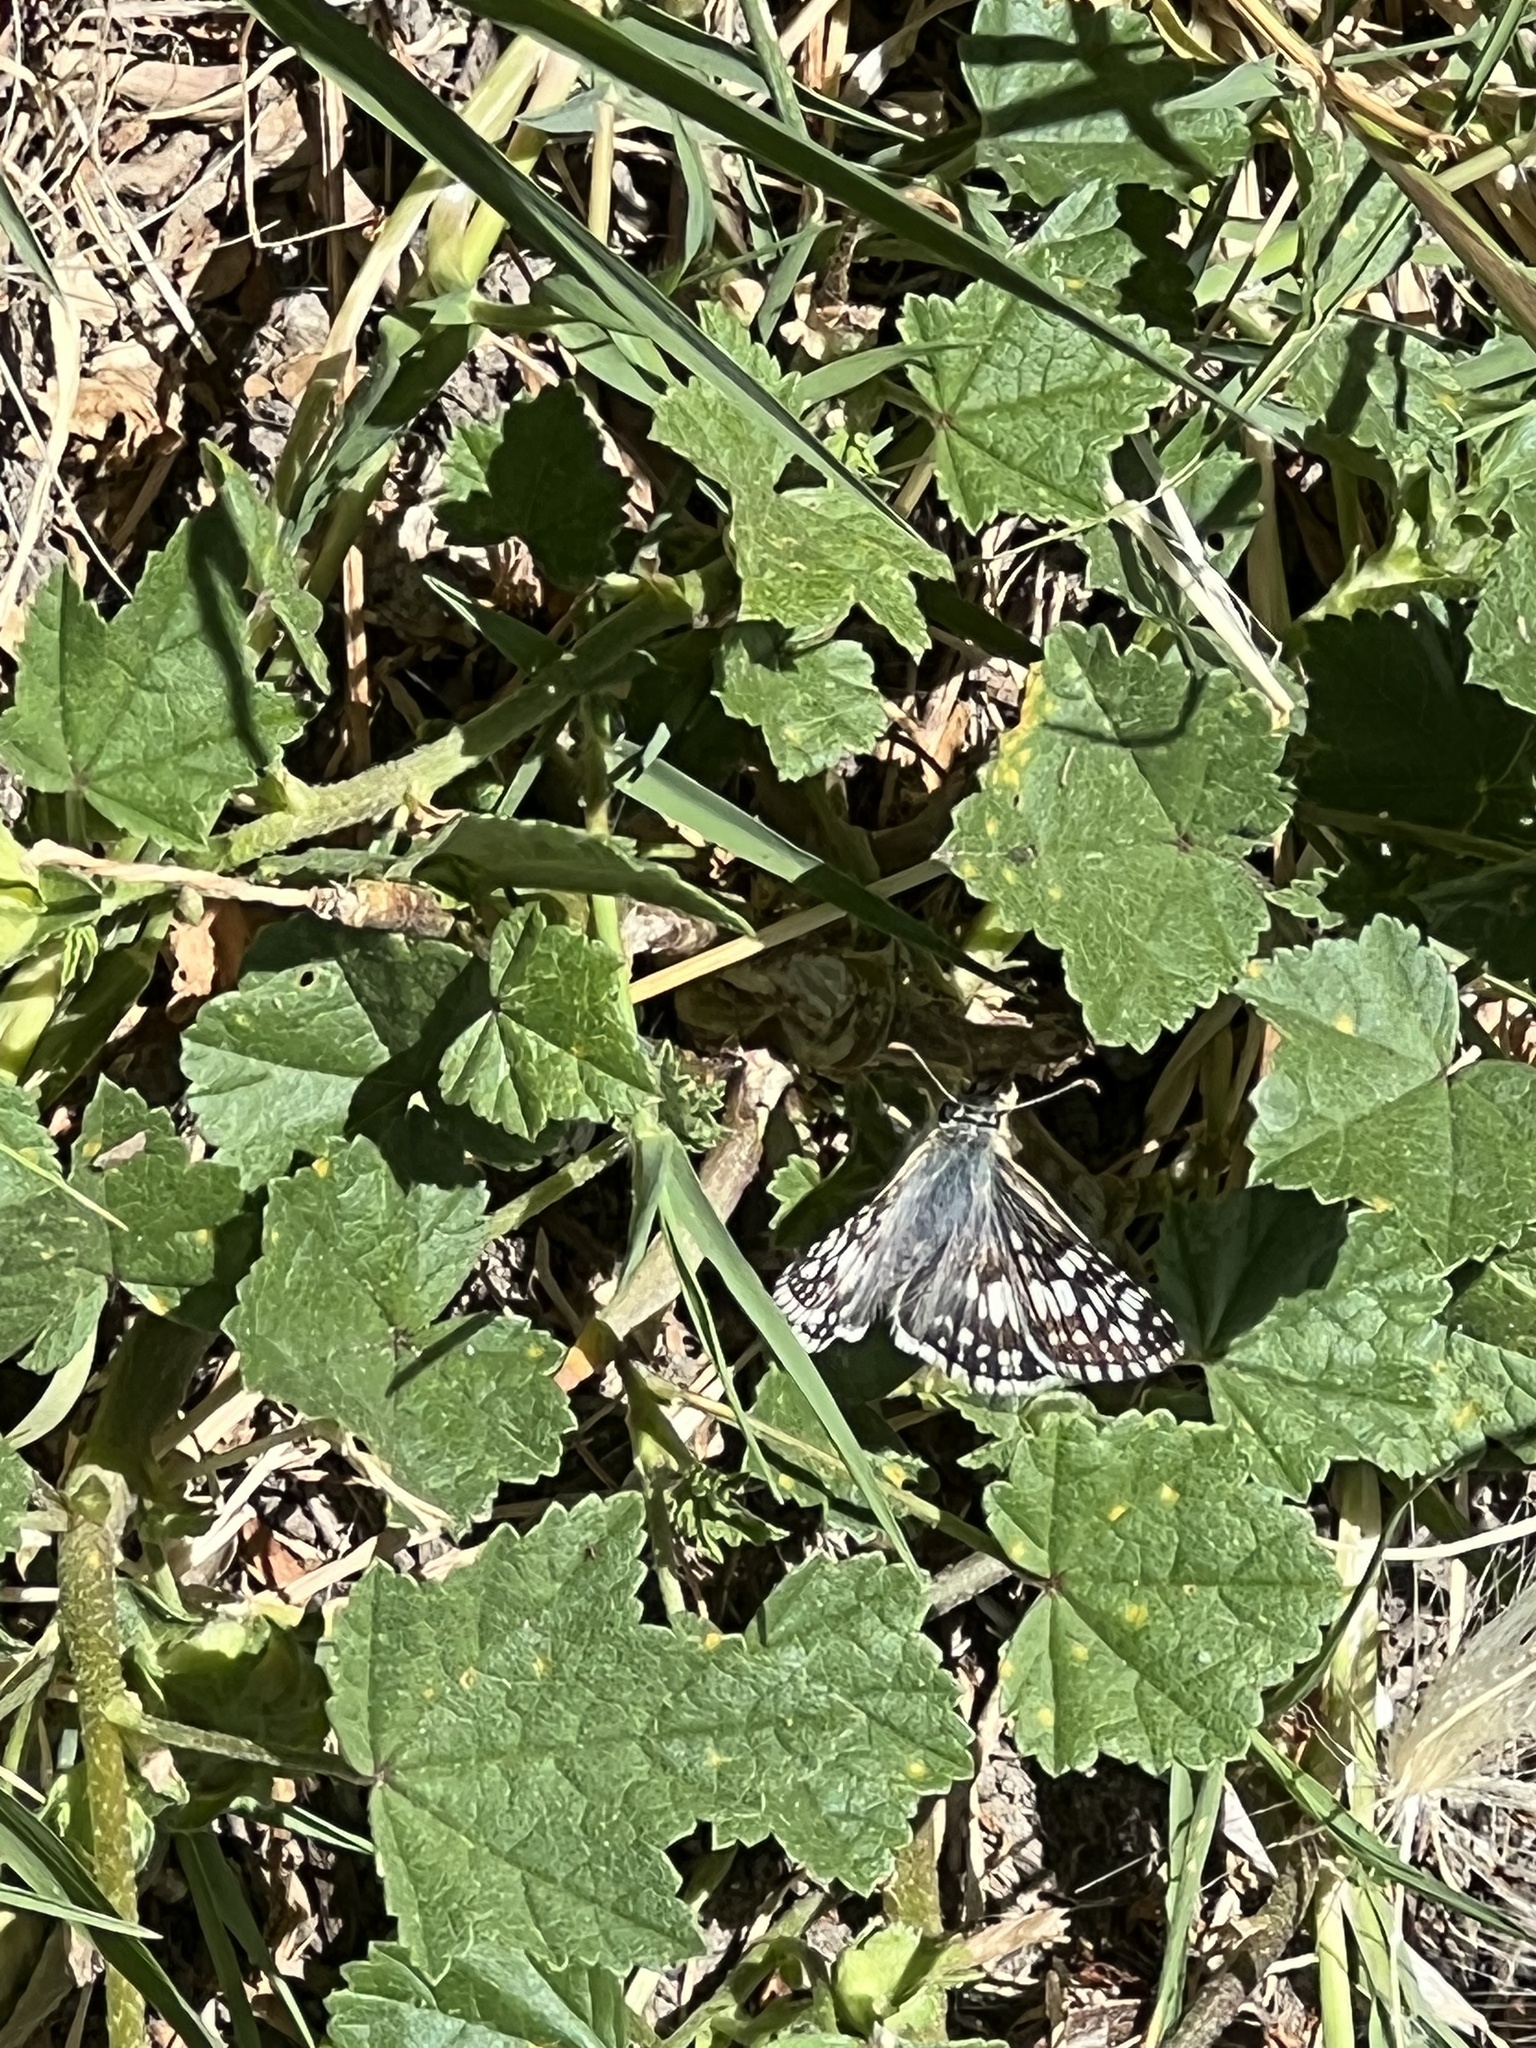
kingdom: Animalia
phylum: Arthropoda
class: Insecta
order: Lepidoptera
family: Hesperiidae
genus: Burnsius
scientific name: Burnsius communis
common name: Common checkered-skipper
